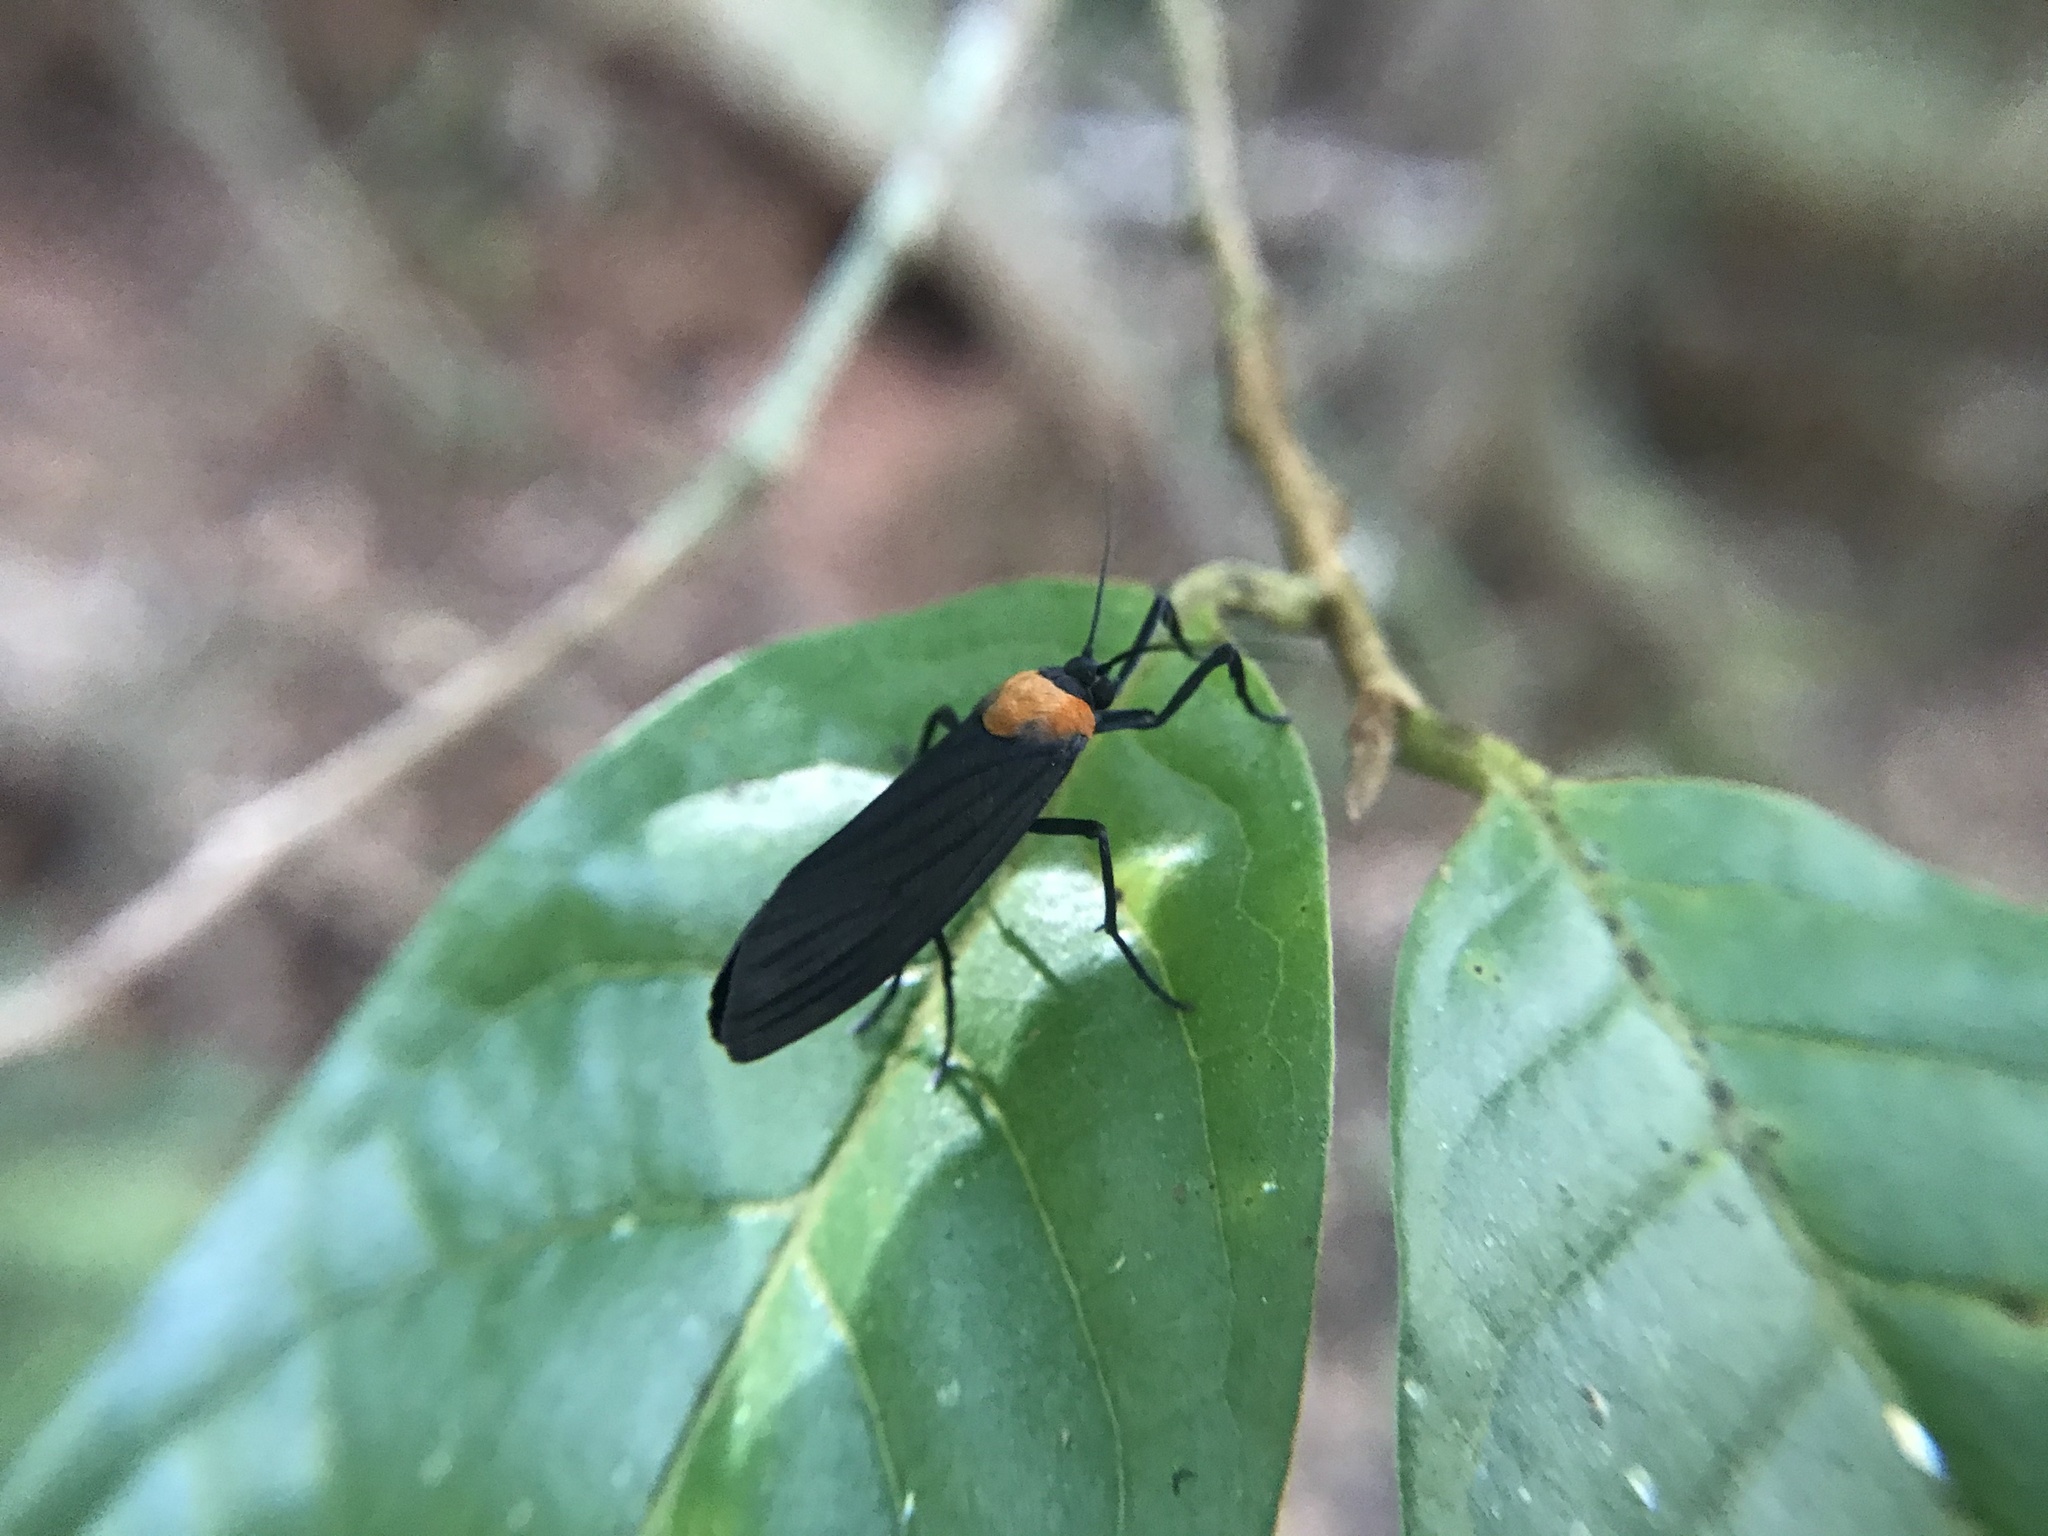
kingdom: Animalia
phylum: Arthropoda
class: Insecta
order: Lepidoptera
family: Erebidae
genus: Balbura
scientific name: Balbura intervenata
